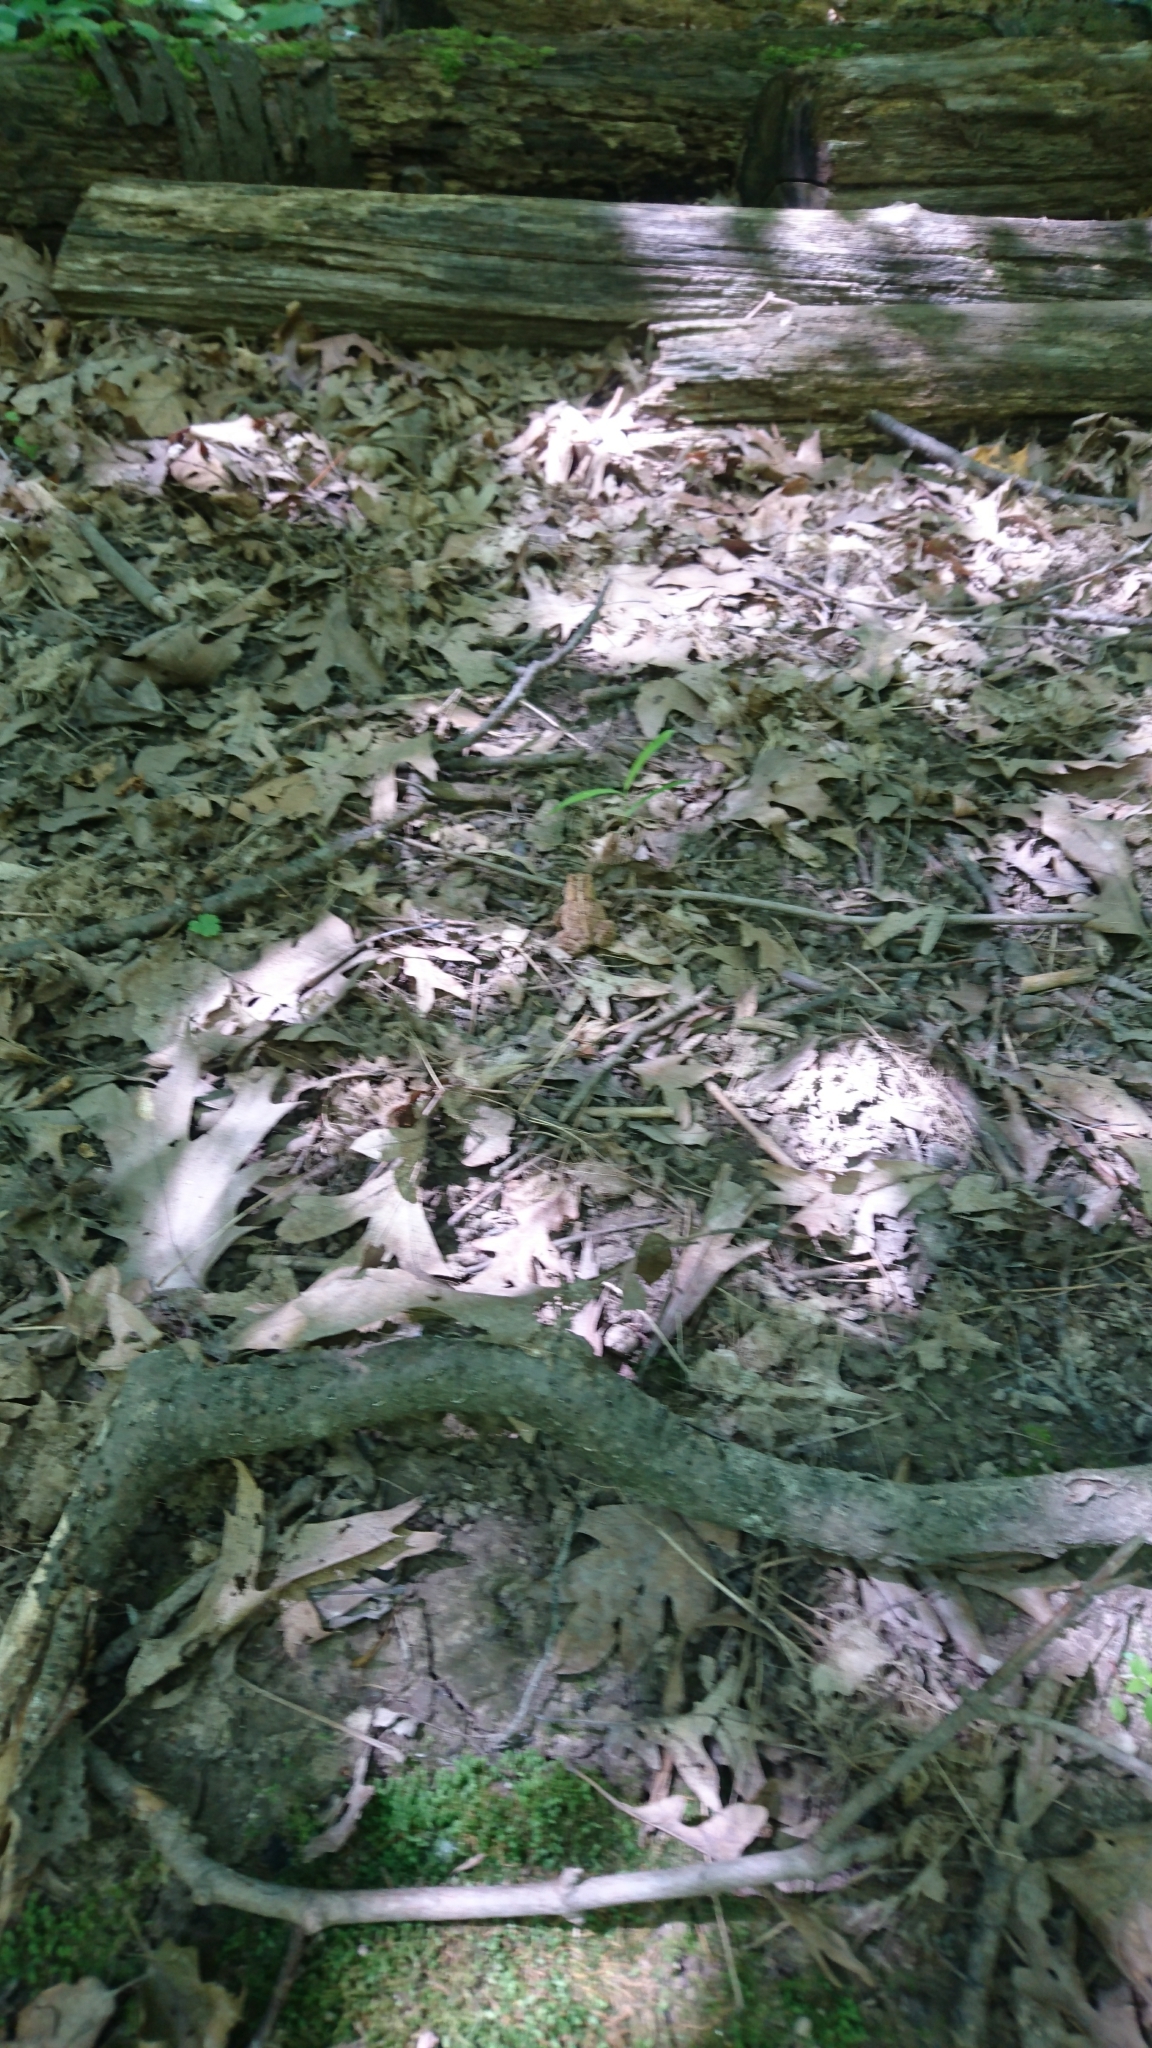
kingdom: Animalia
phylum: Chordata
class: Amphibia
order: Anura
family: Bufonidae
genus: Anaxyrus
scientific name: Anaxyrus americanus
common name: American toad
